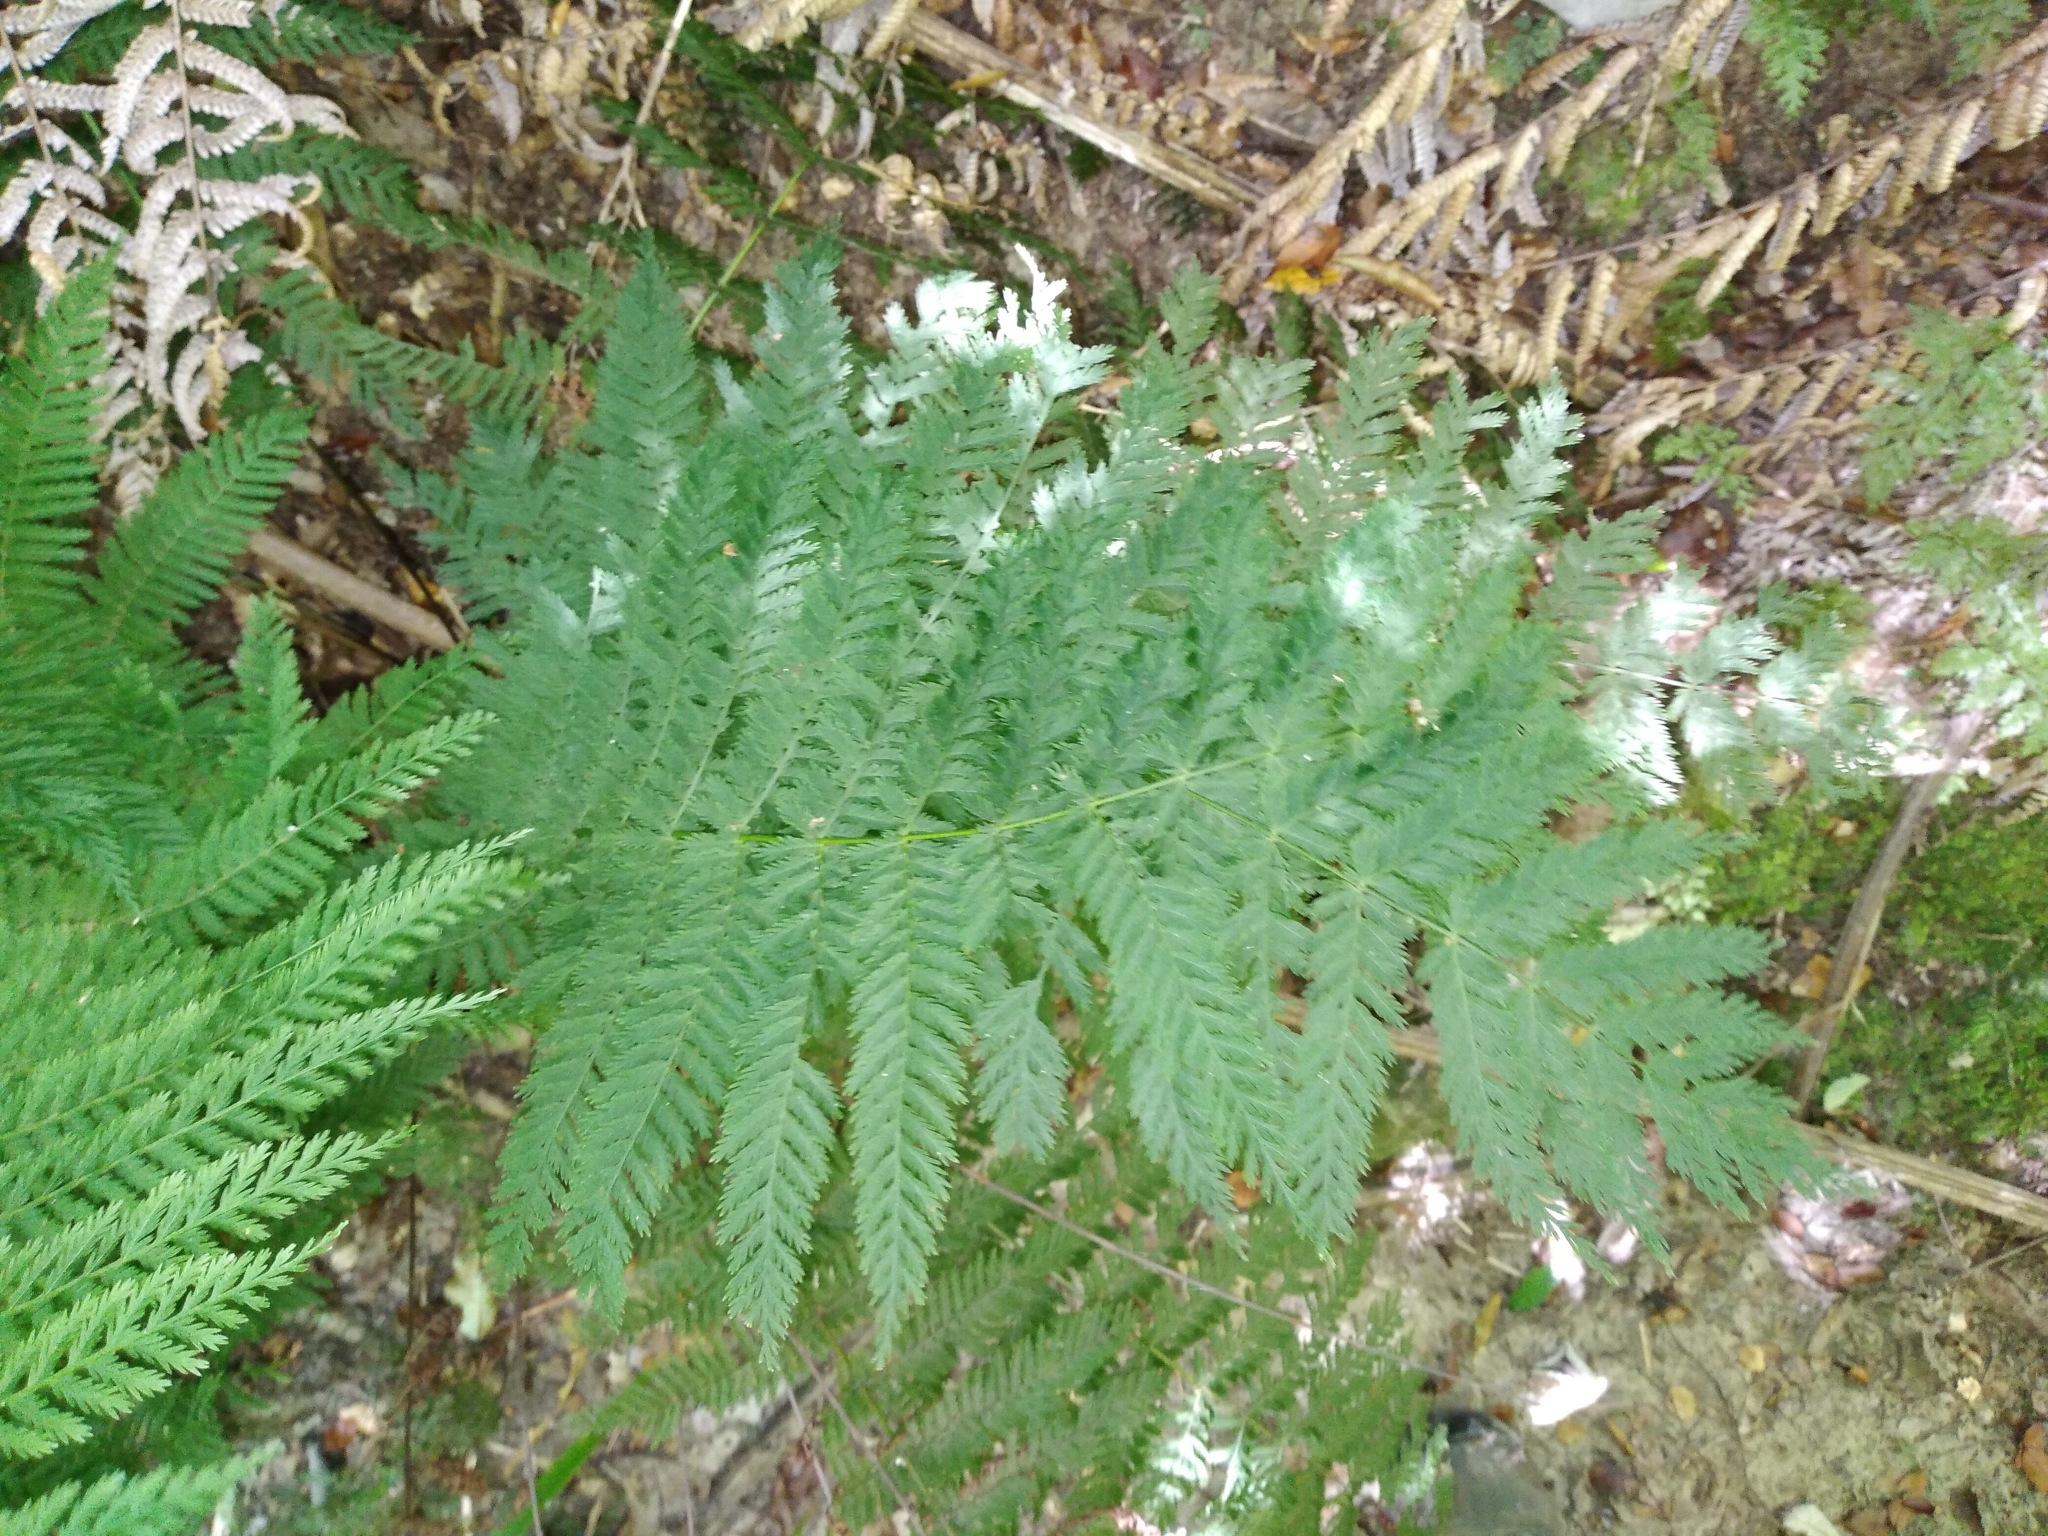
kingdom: Plantae
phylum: Tracheophyta
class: Polypodiopsida
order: Osmundales
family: Osmundaceae
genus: Leptopteris
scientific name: Leptopteris hymenophylloides
